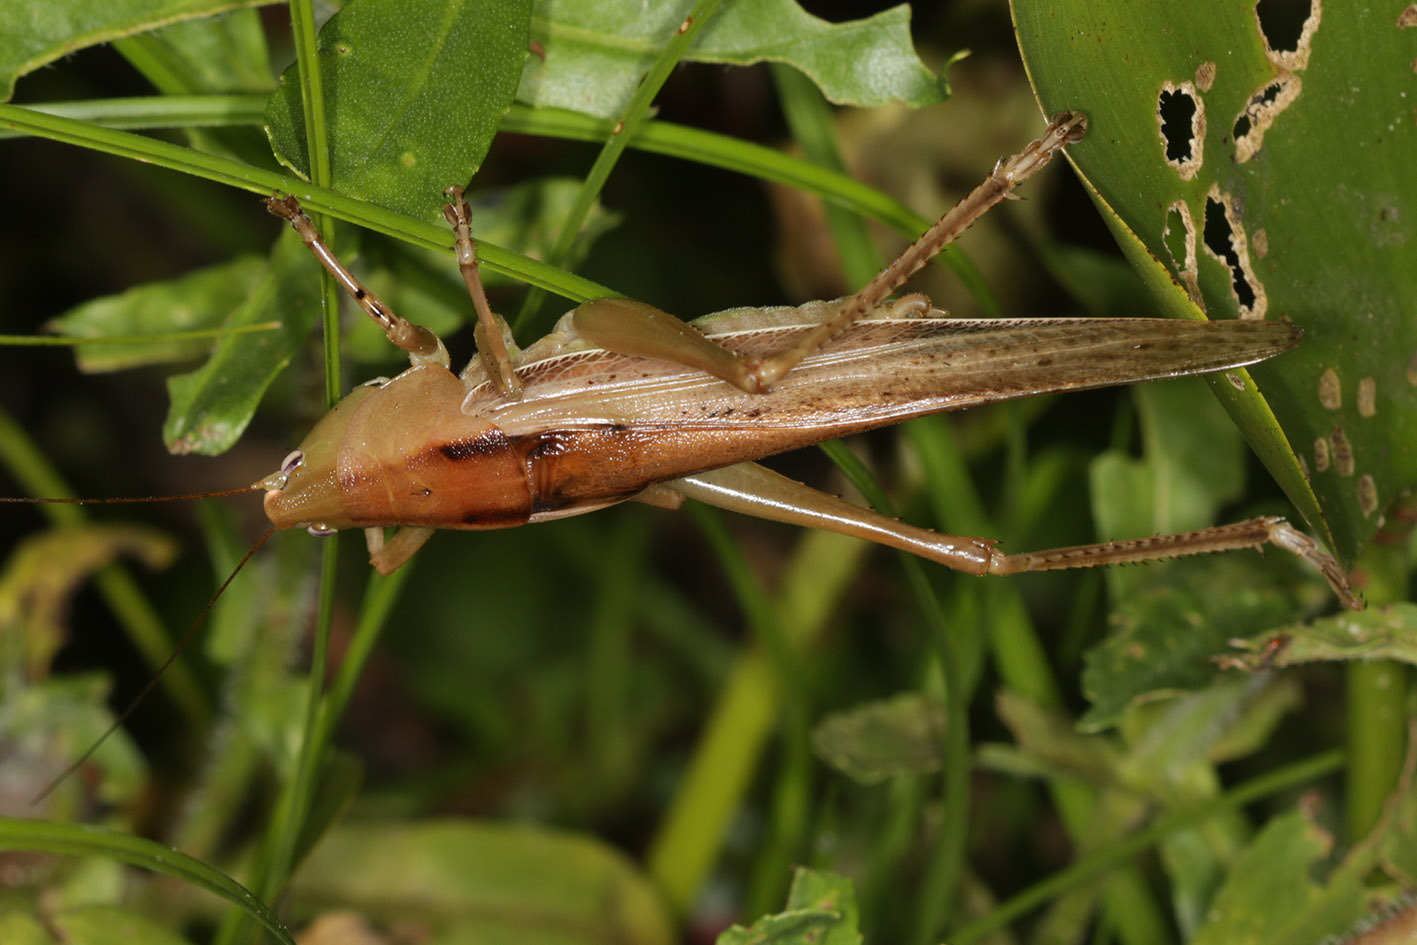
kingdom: Animalia
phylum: Arthropoda
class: Insecta
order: Orthoptera
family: Tettigoniidae
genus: Bucrates
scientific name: Bucrates lanista
